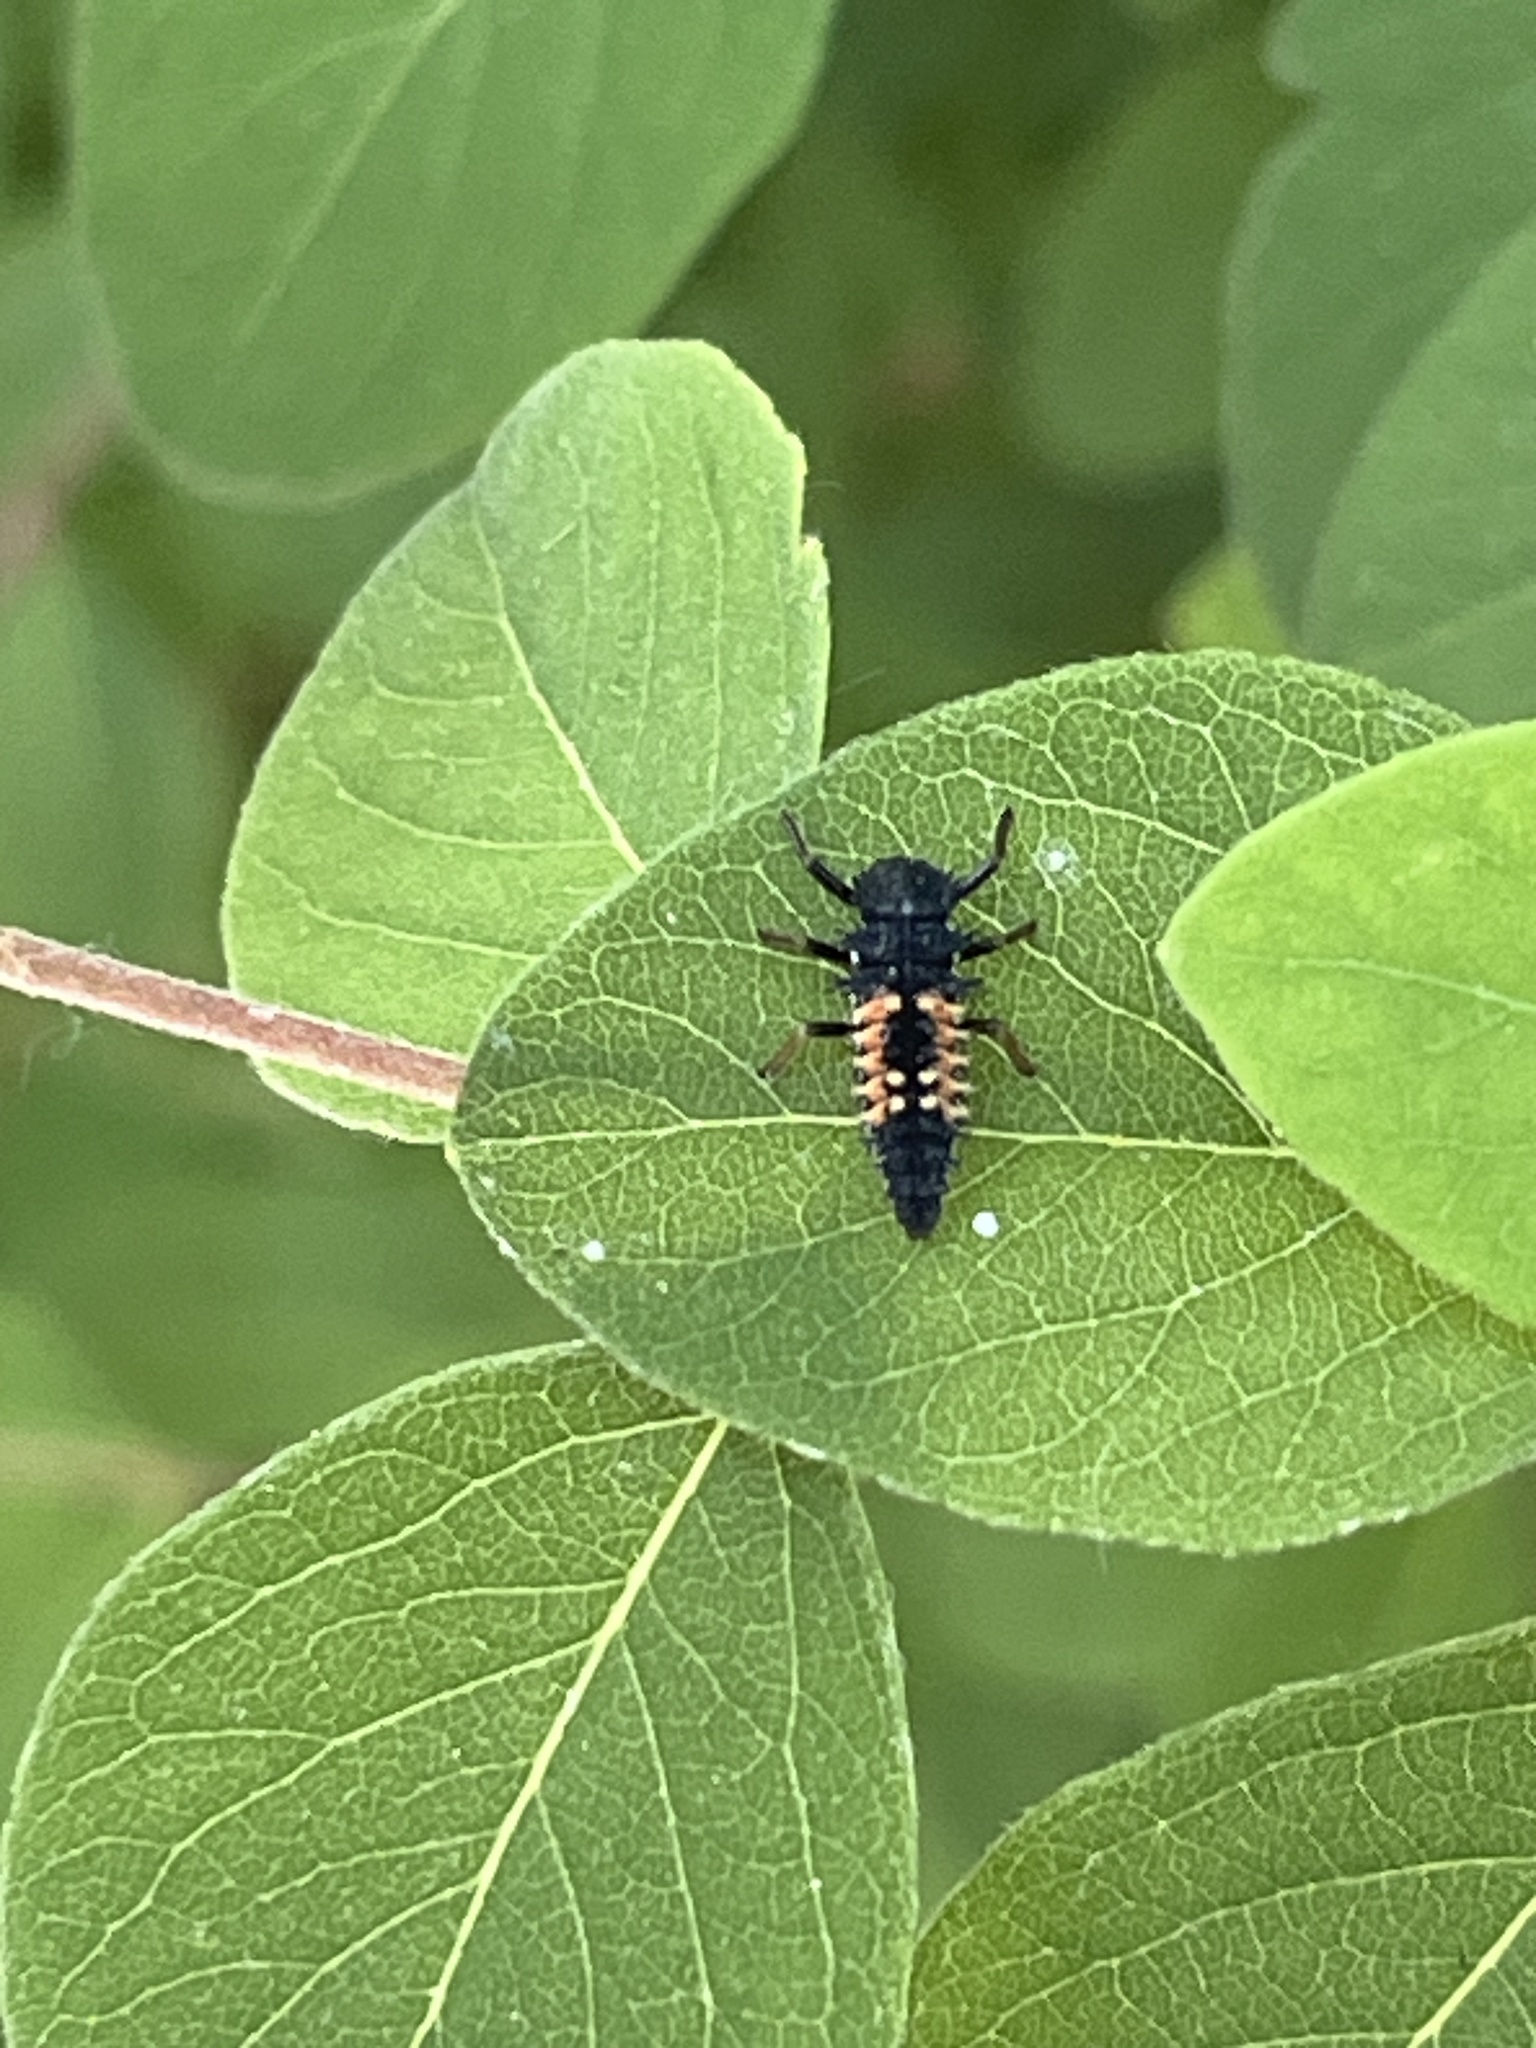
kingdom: Animalia
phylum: Arthropoda
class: Insecta
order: Coleoptera
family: Coccinellidae
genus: Harmonia
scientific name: Harmonia axyridis
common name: Harlequin ladybird
